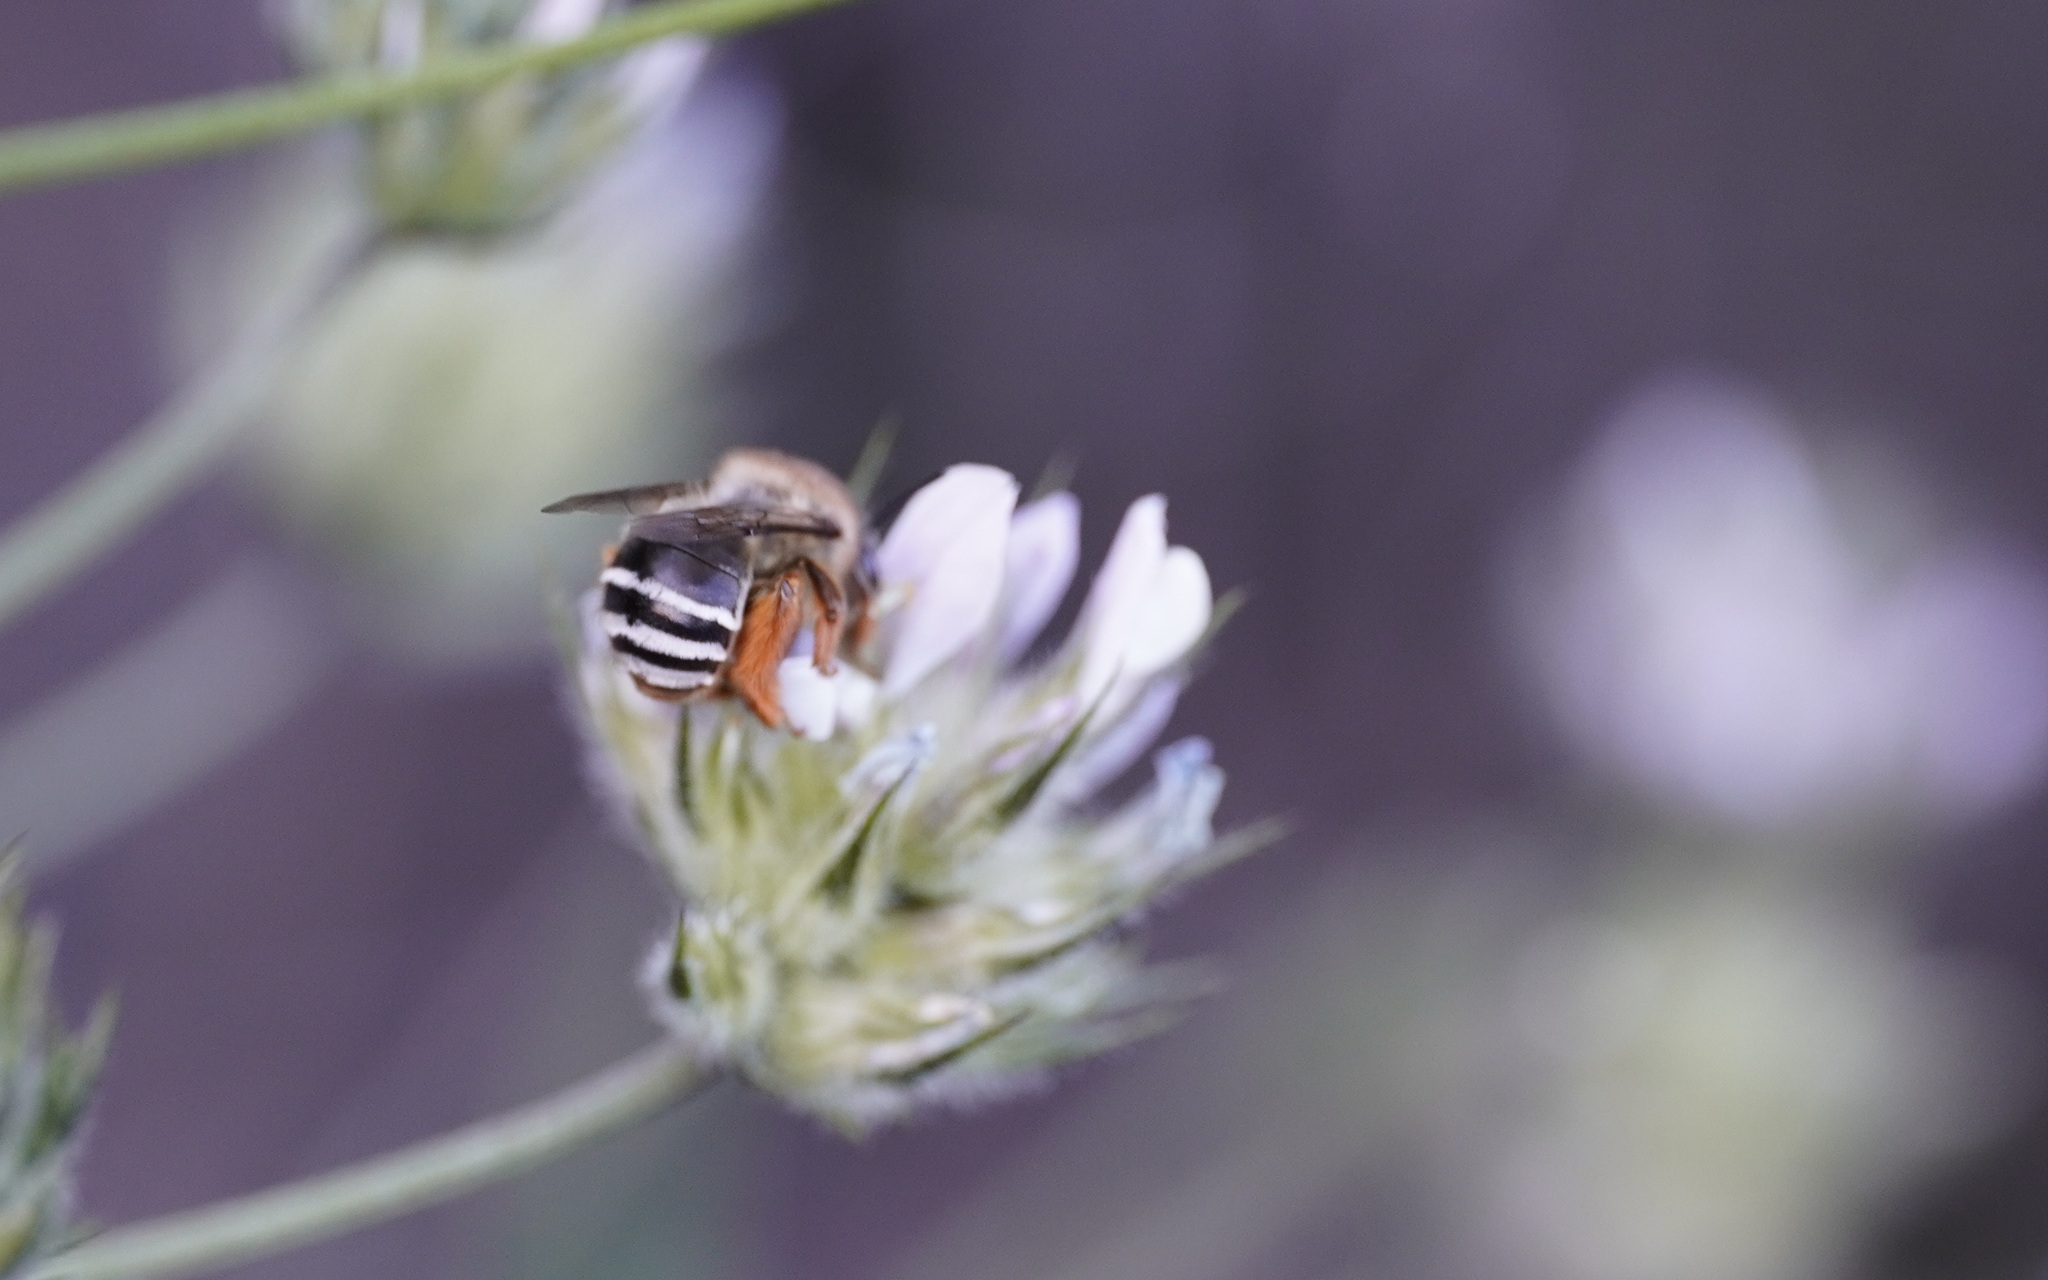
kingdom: Animalia
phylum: Arthropoda
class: Insecta
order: Hymenoptera
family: Apidae
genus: Eucera
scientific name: Eucera gracilipes
